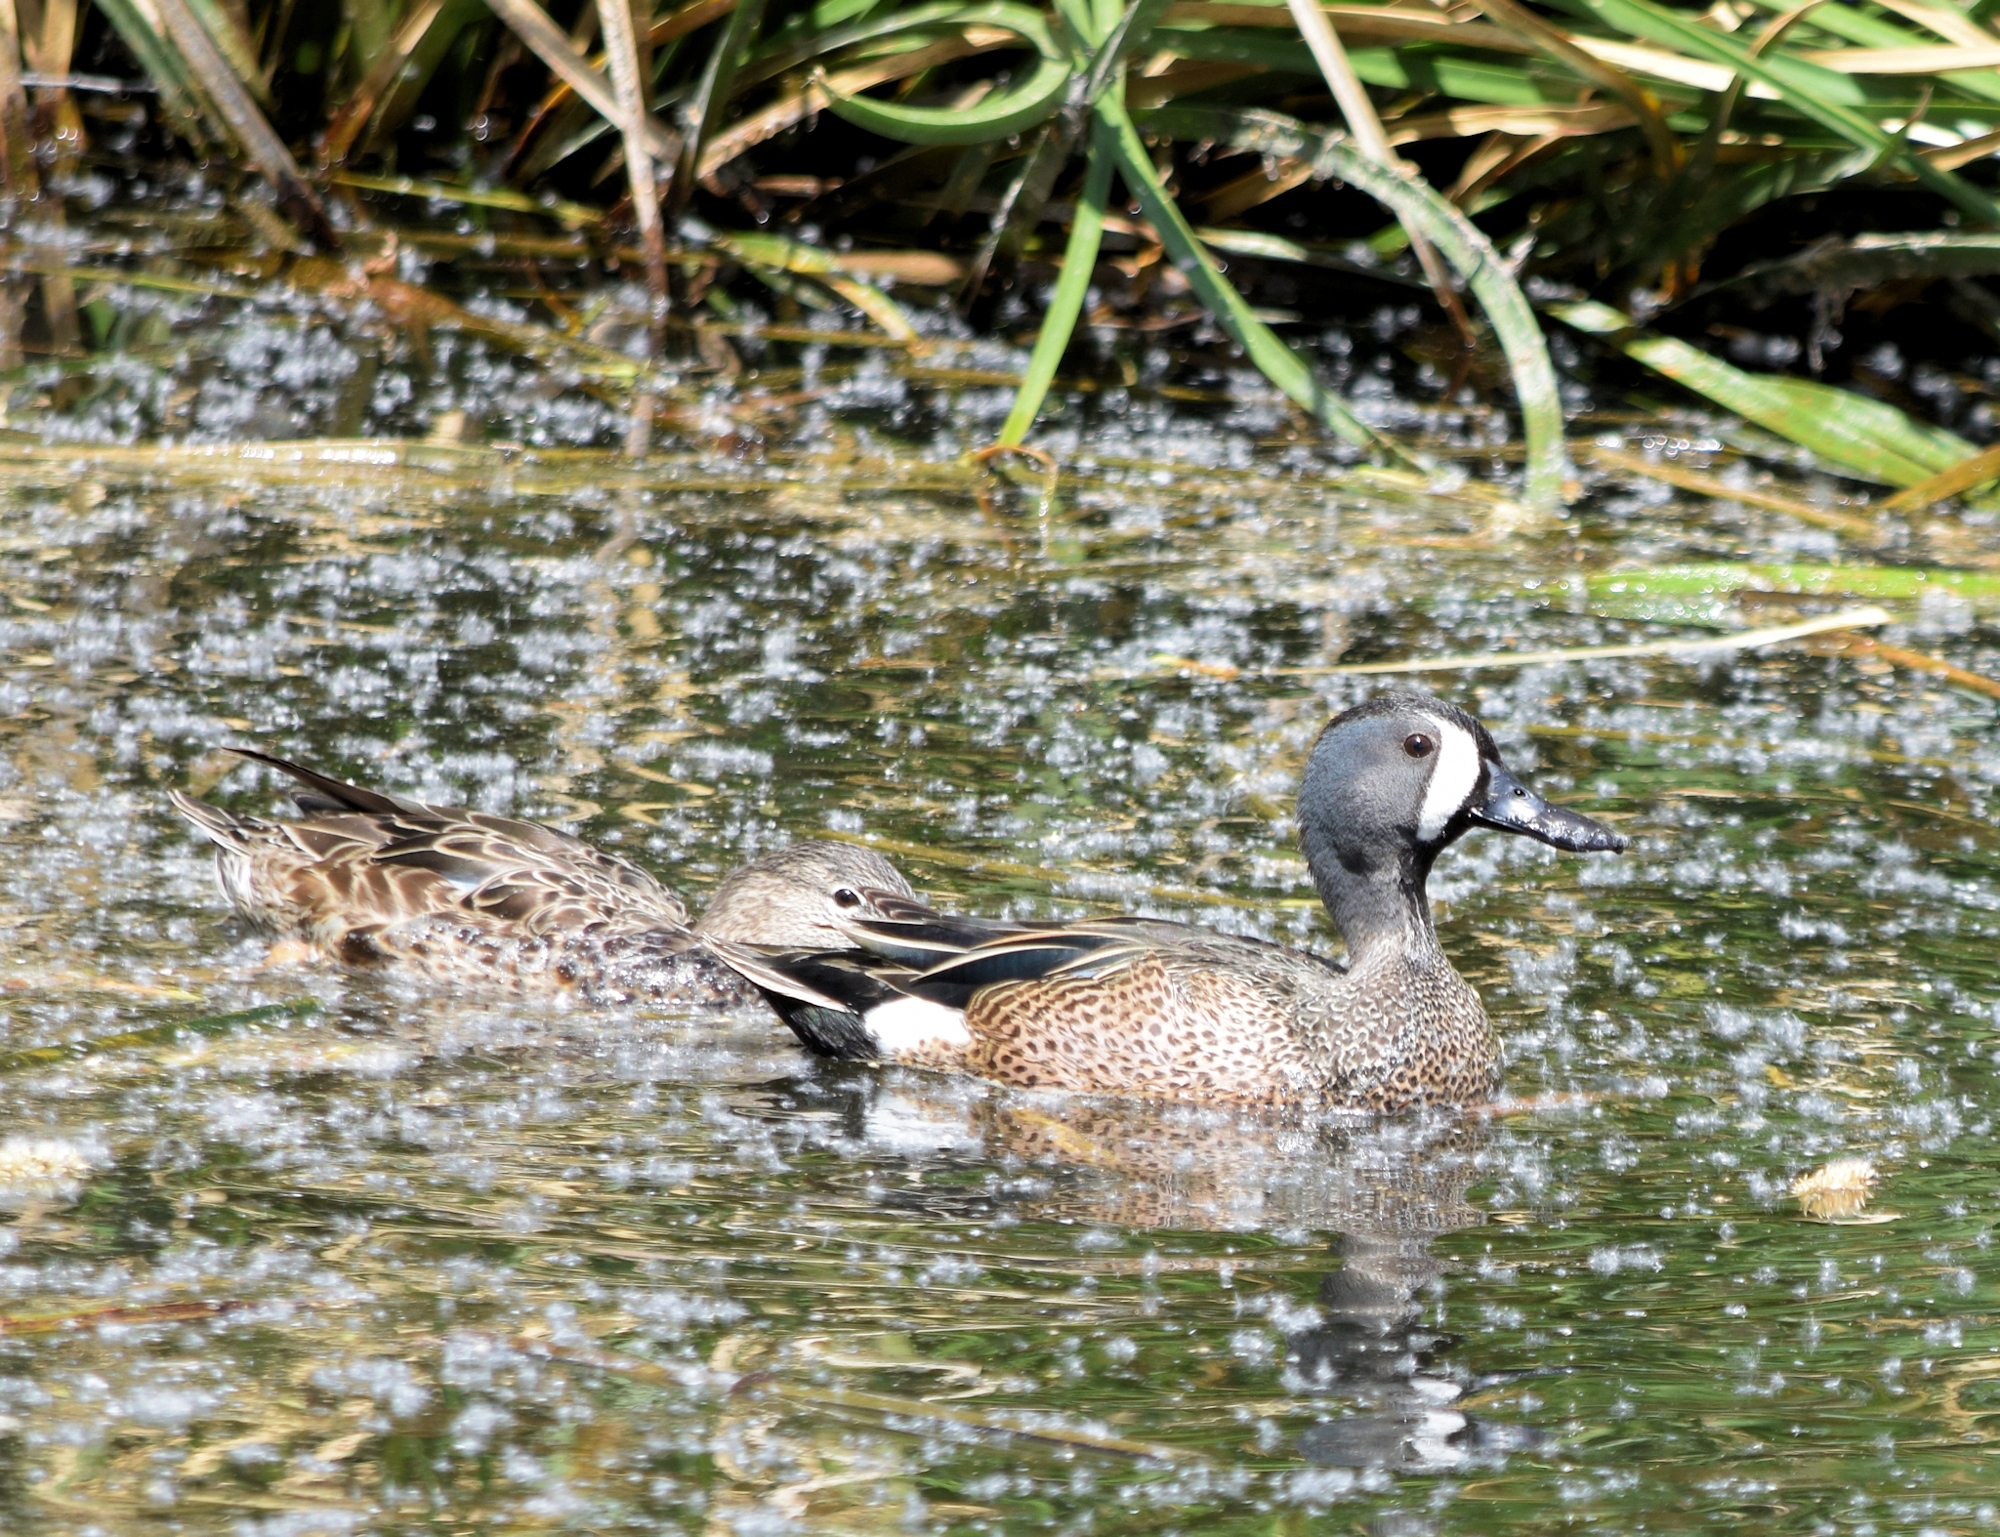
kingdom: Animalia
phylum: Chordata
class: Aves
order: Anseriformes
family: Anatidae
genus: Spatula
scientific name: Spatula discors
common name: Blue-winged teal
